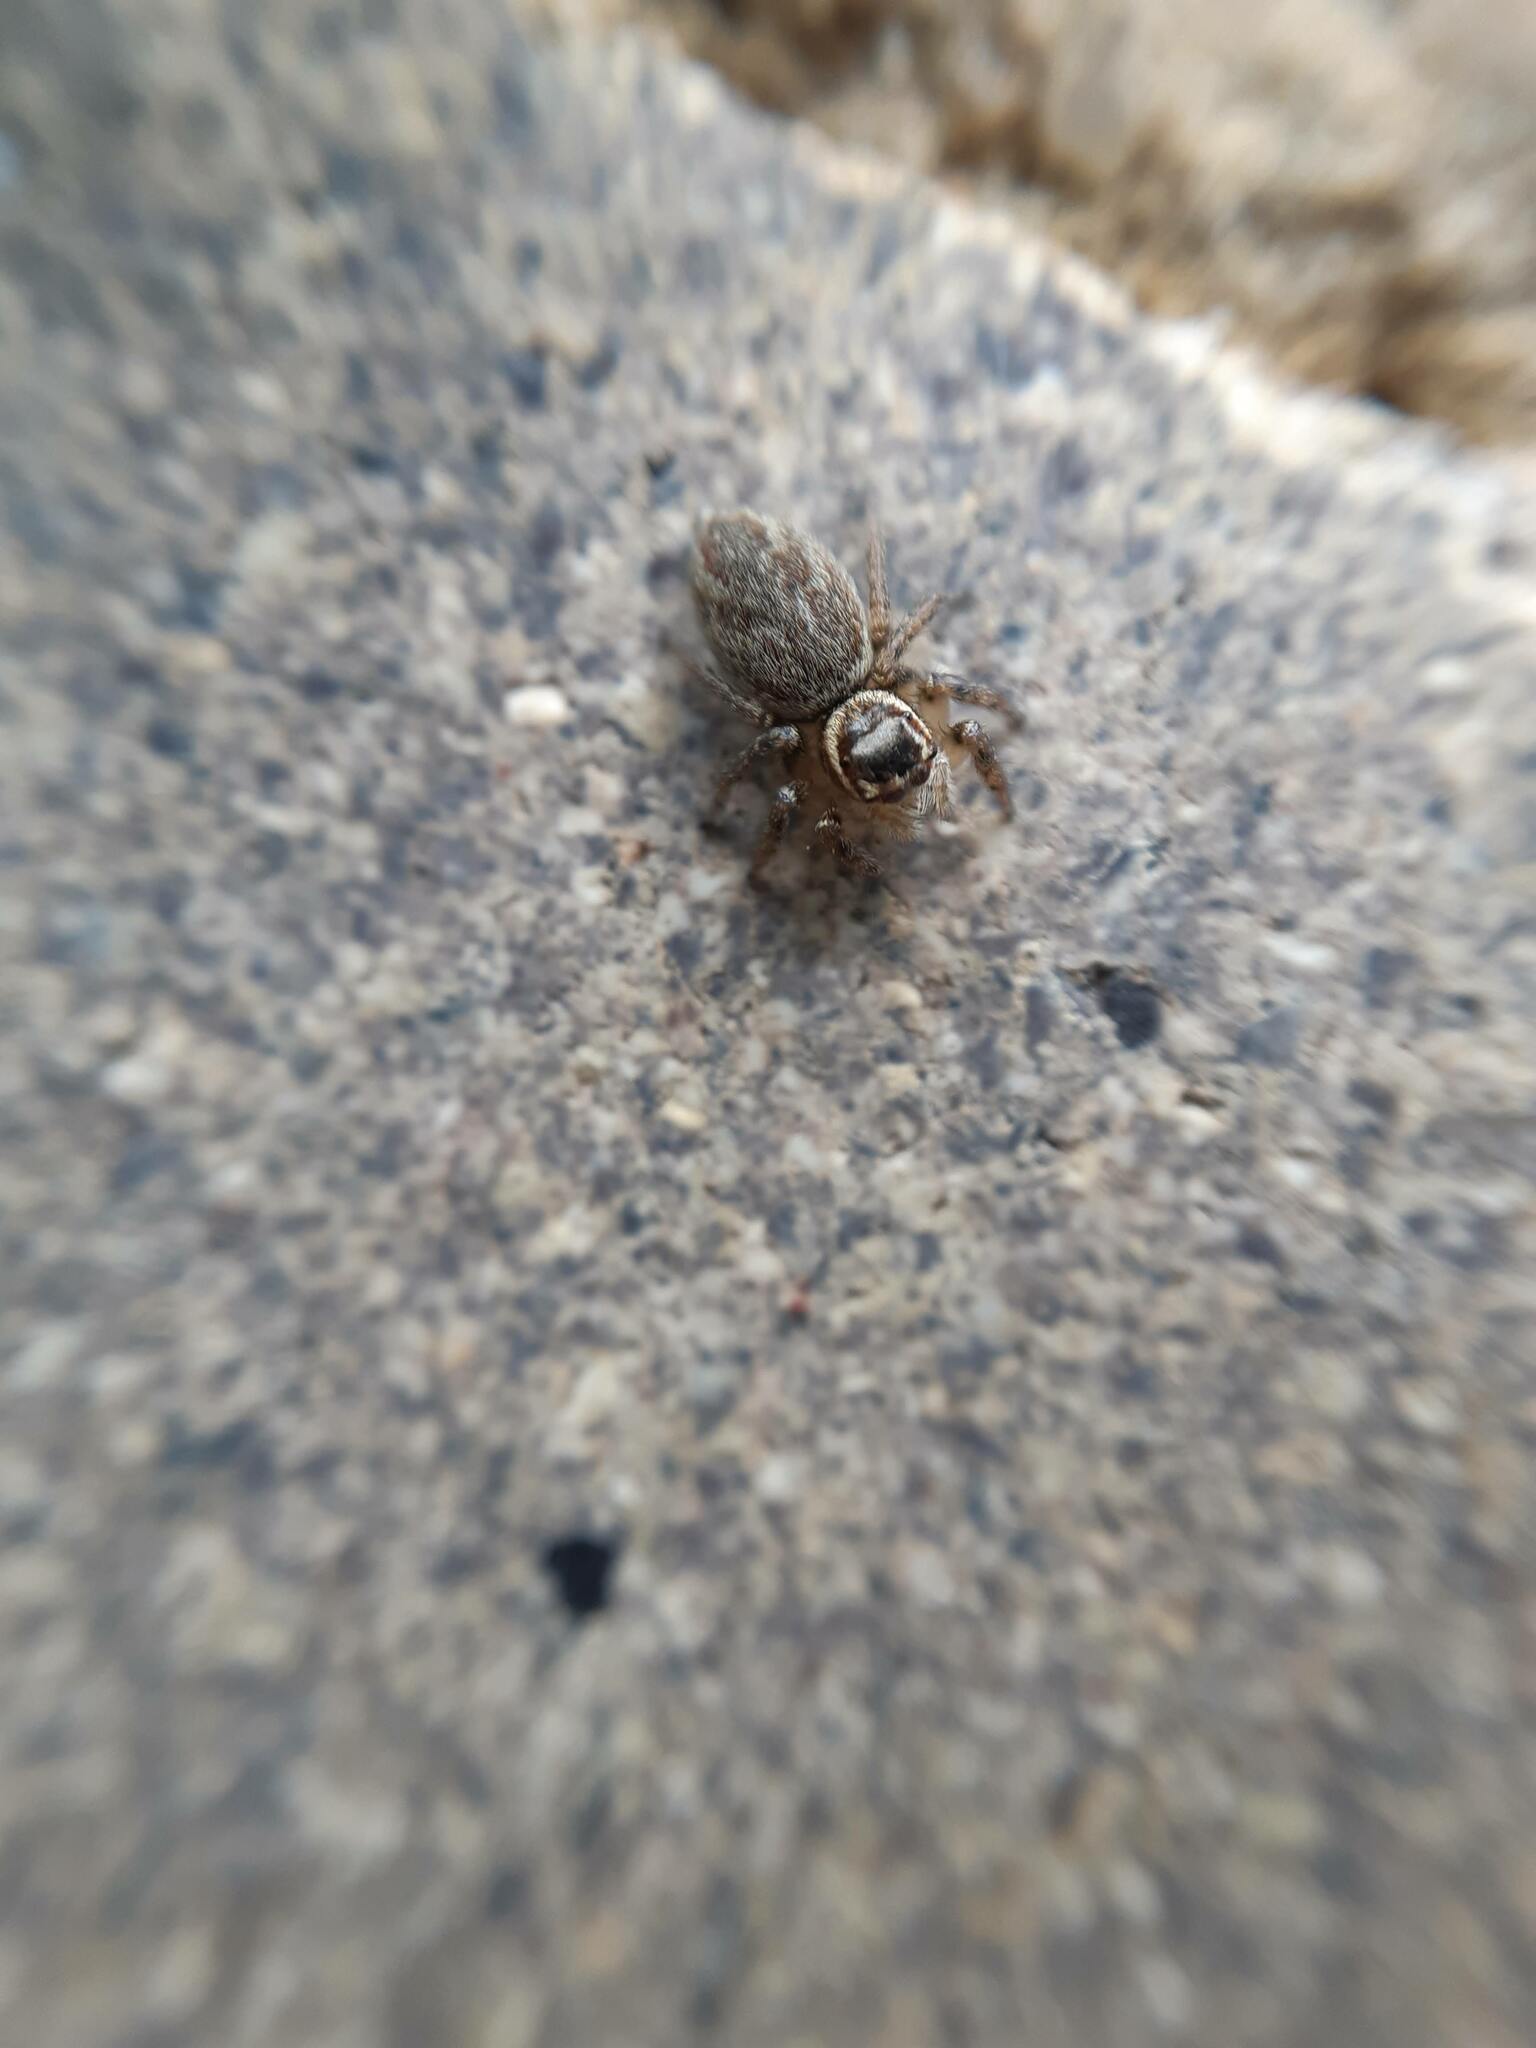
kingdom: Animalia
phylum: Arthropoda
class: Arachnida
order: Araneae
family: Salticidae
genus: Maratus
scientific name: Maratus griseus
